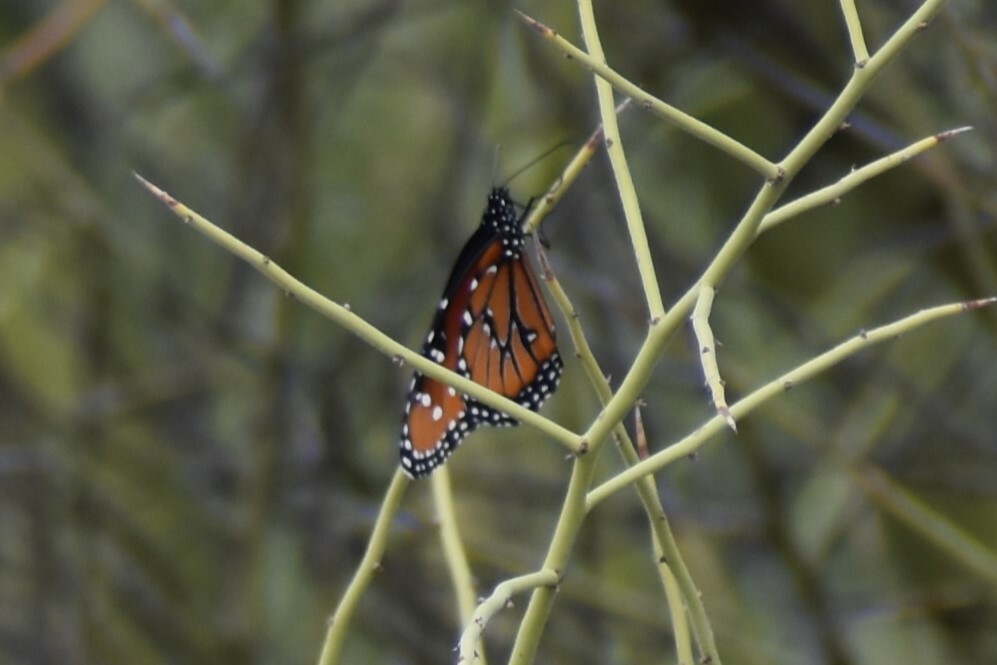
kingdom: Animalia
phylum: Arthropoda
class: Insecta
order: Lepidoptera
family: Nymphalidae
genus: Danaus
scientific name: Danaus gilippus
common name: Queen
